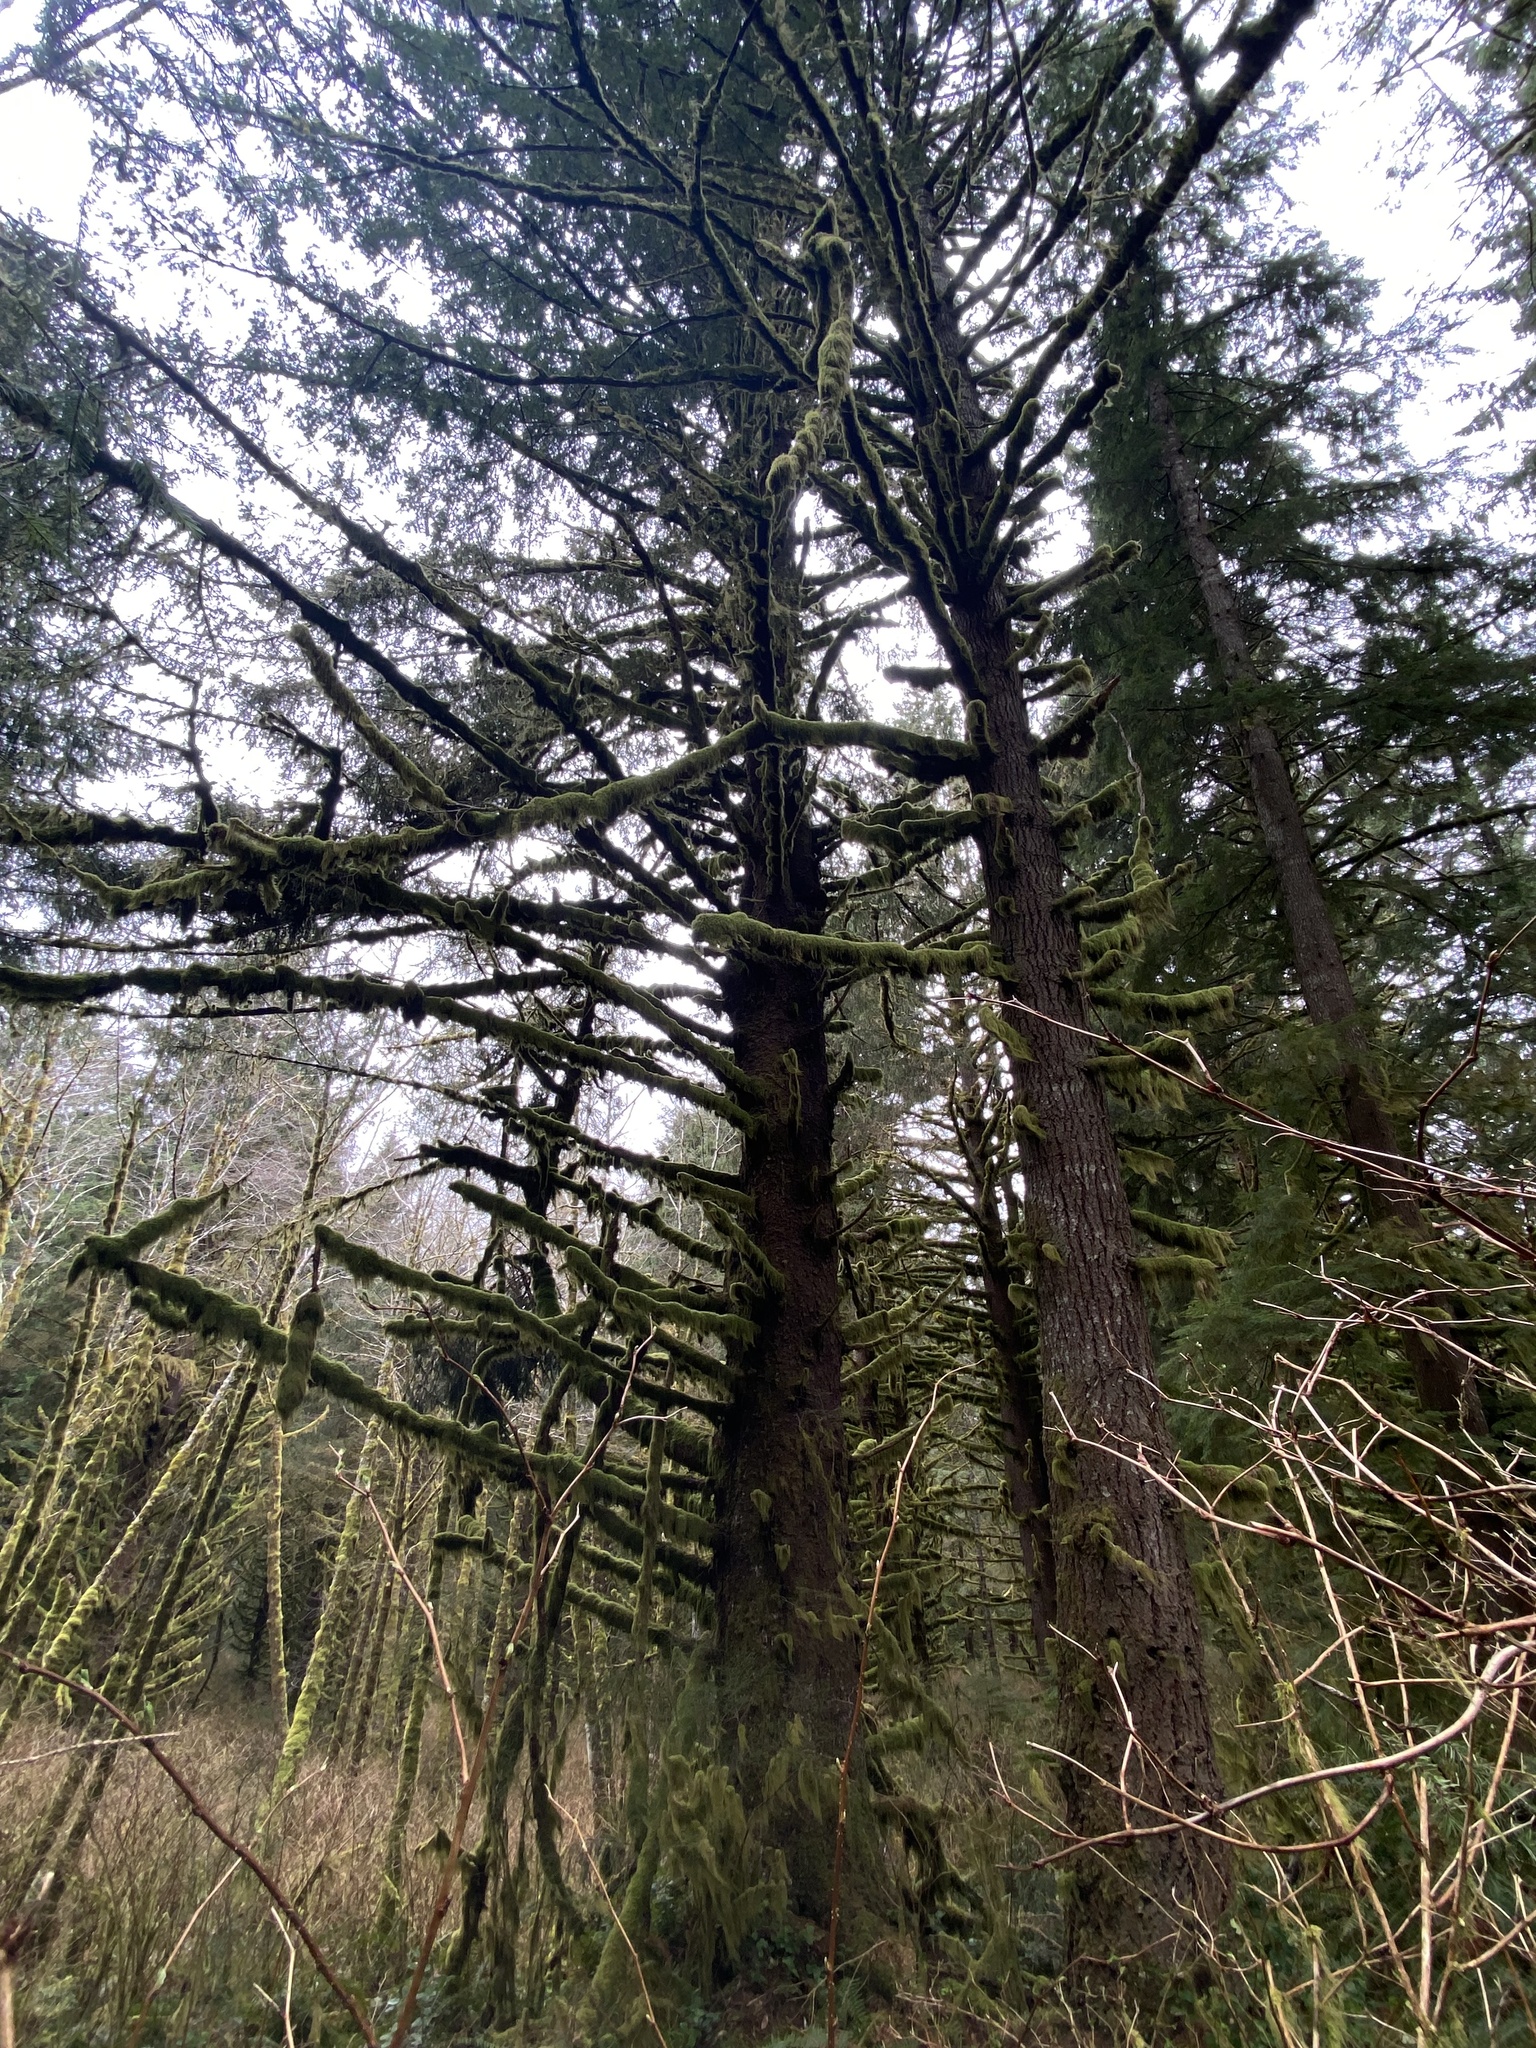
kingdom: Plantae
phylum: Tracheophyta
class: Pinopsida
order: Pinales
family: Pinaceae
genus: Picea
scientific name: Picea sitchensis
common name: Sitka spruce
